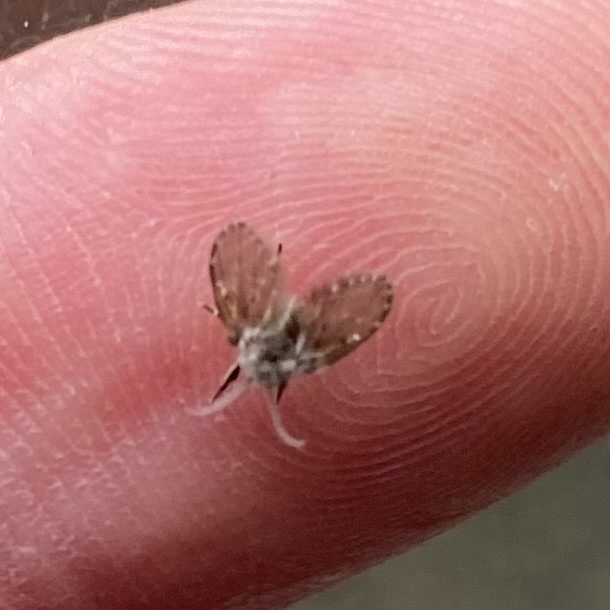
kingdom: Animalia
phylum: Arthropoda
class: Insecta
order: Diptera
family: Psychodidae
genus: Clogmia
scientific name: Clogmia albipunctatus
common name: White-spotted moth fly
